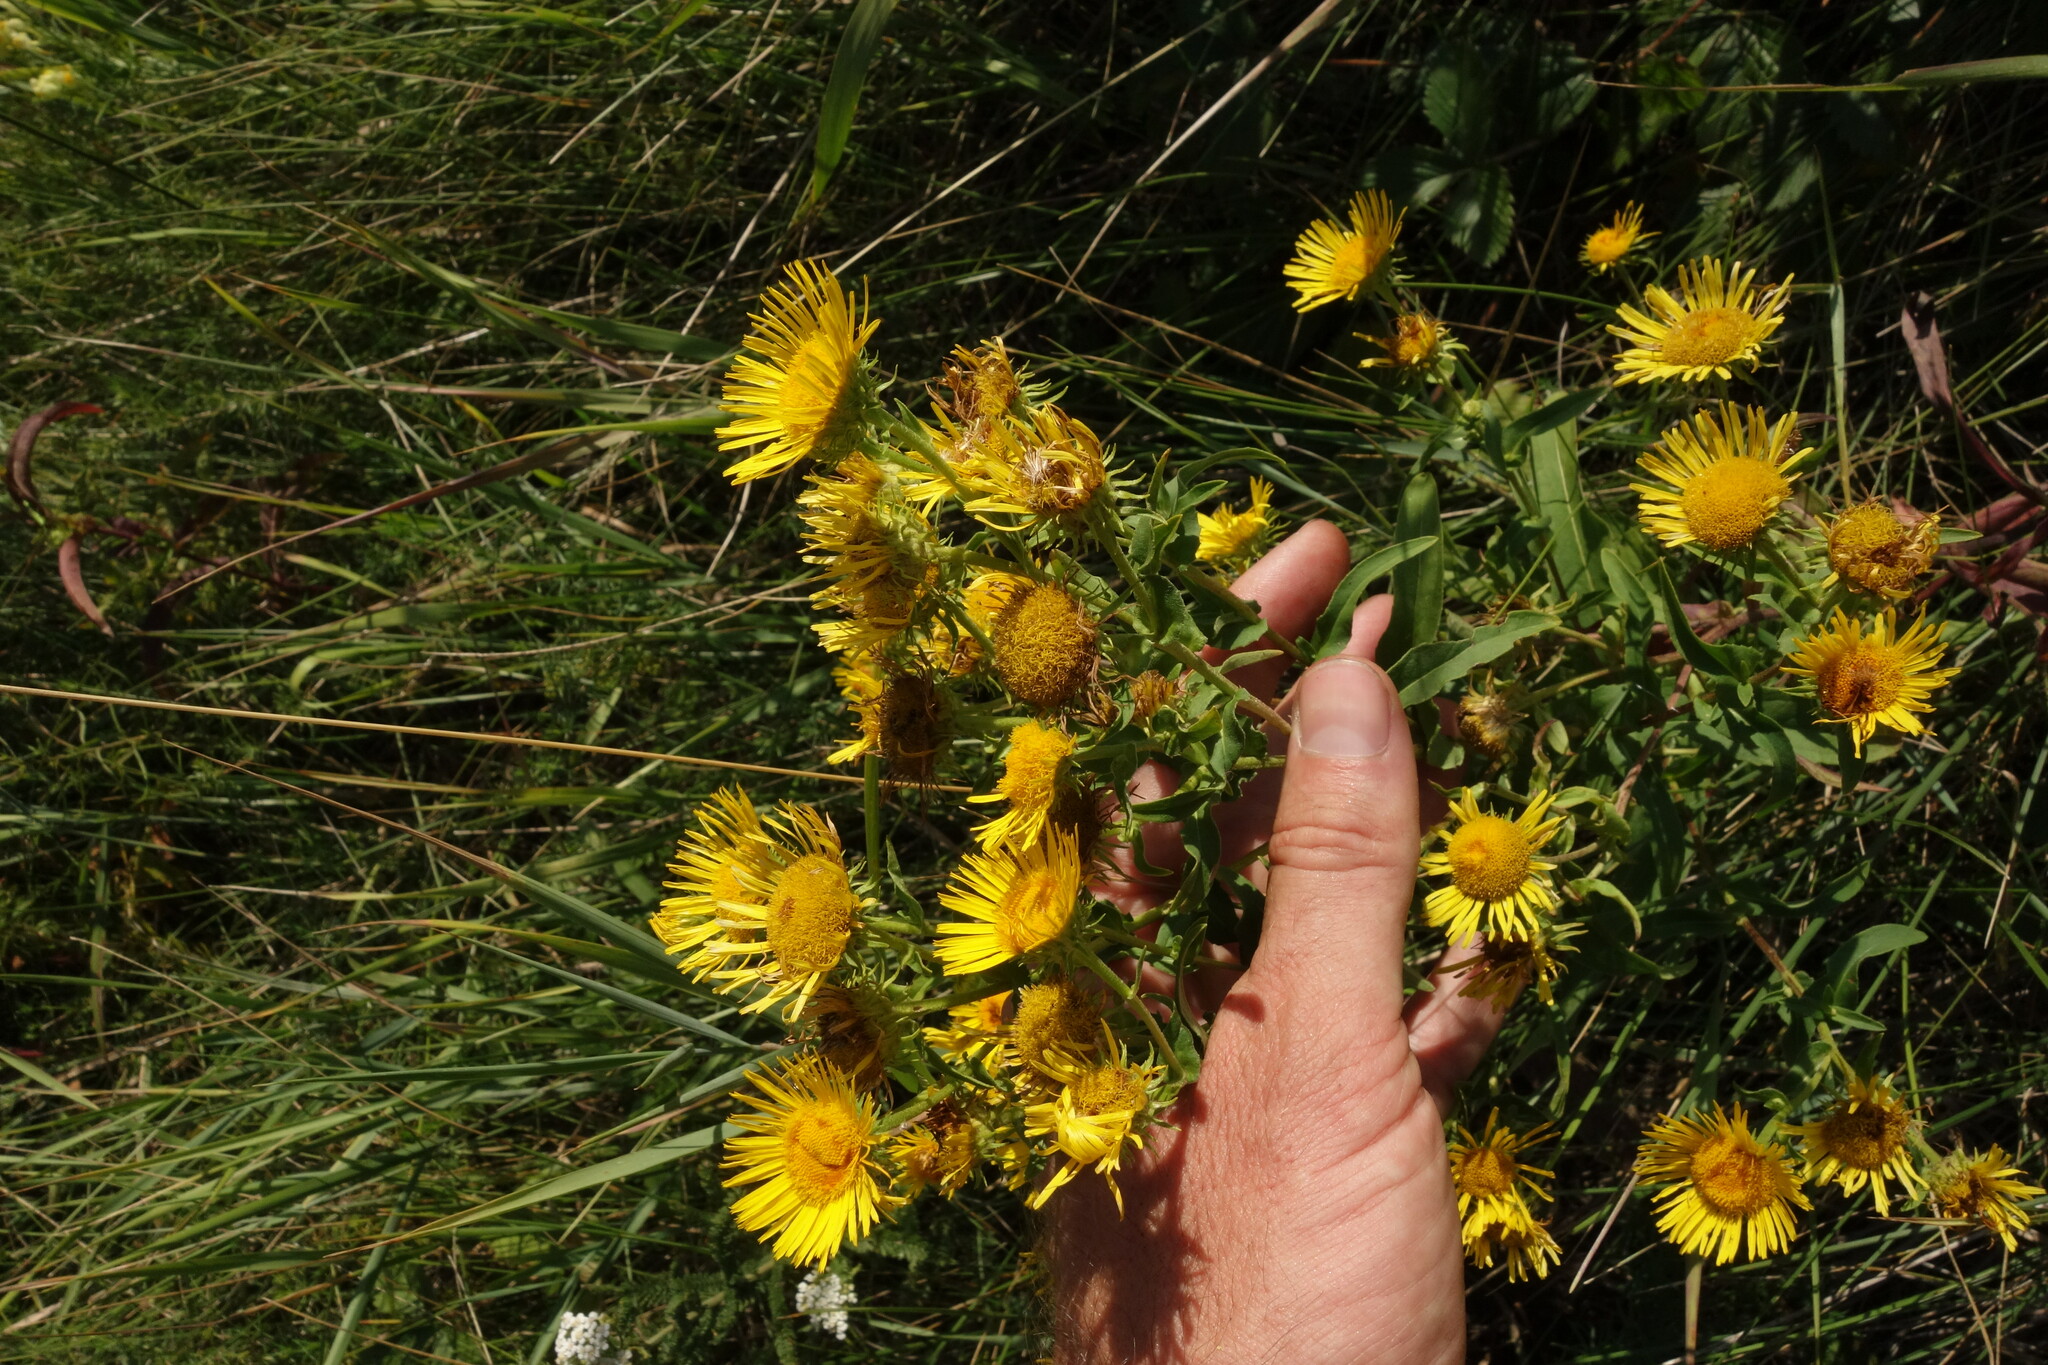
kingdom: Plantae
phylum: Tracheophyta
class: Magnoliopsida
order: Asterales
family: Asteraceae
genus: Pentanema
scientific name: Pentanema britannicum
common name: British elecampane
